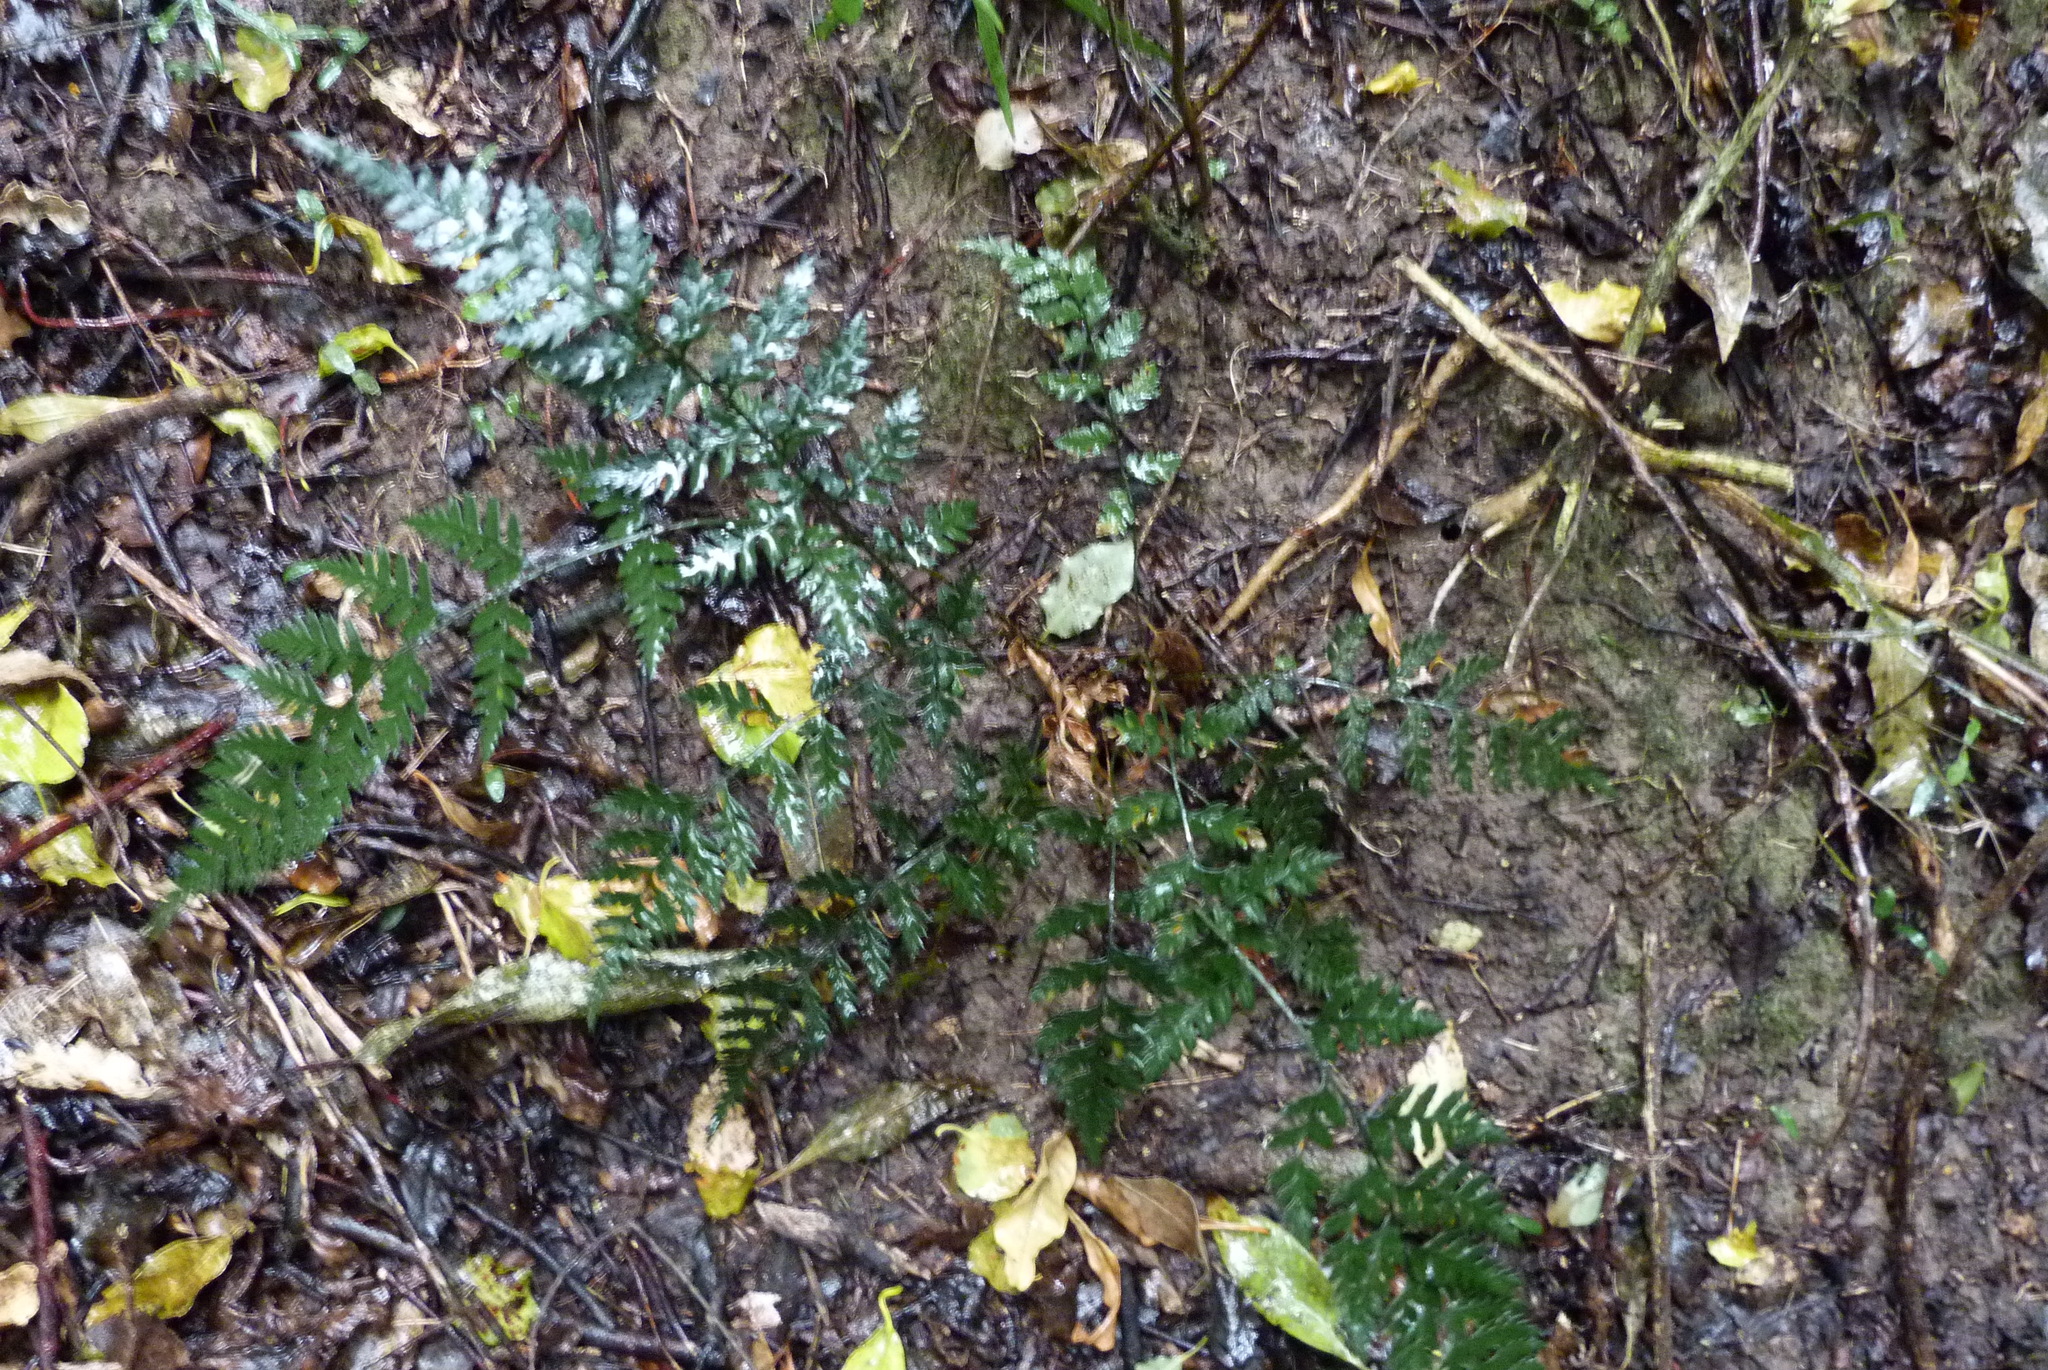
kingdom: Plantae
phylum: Tracheophyta
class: Polypodiopsida
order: Polypodiales
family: Dryopteridaceae
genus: Polystichum
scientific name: Polystichum oculatum
